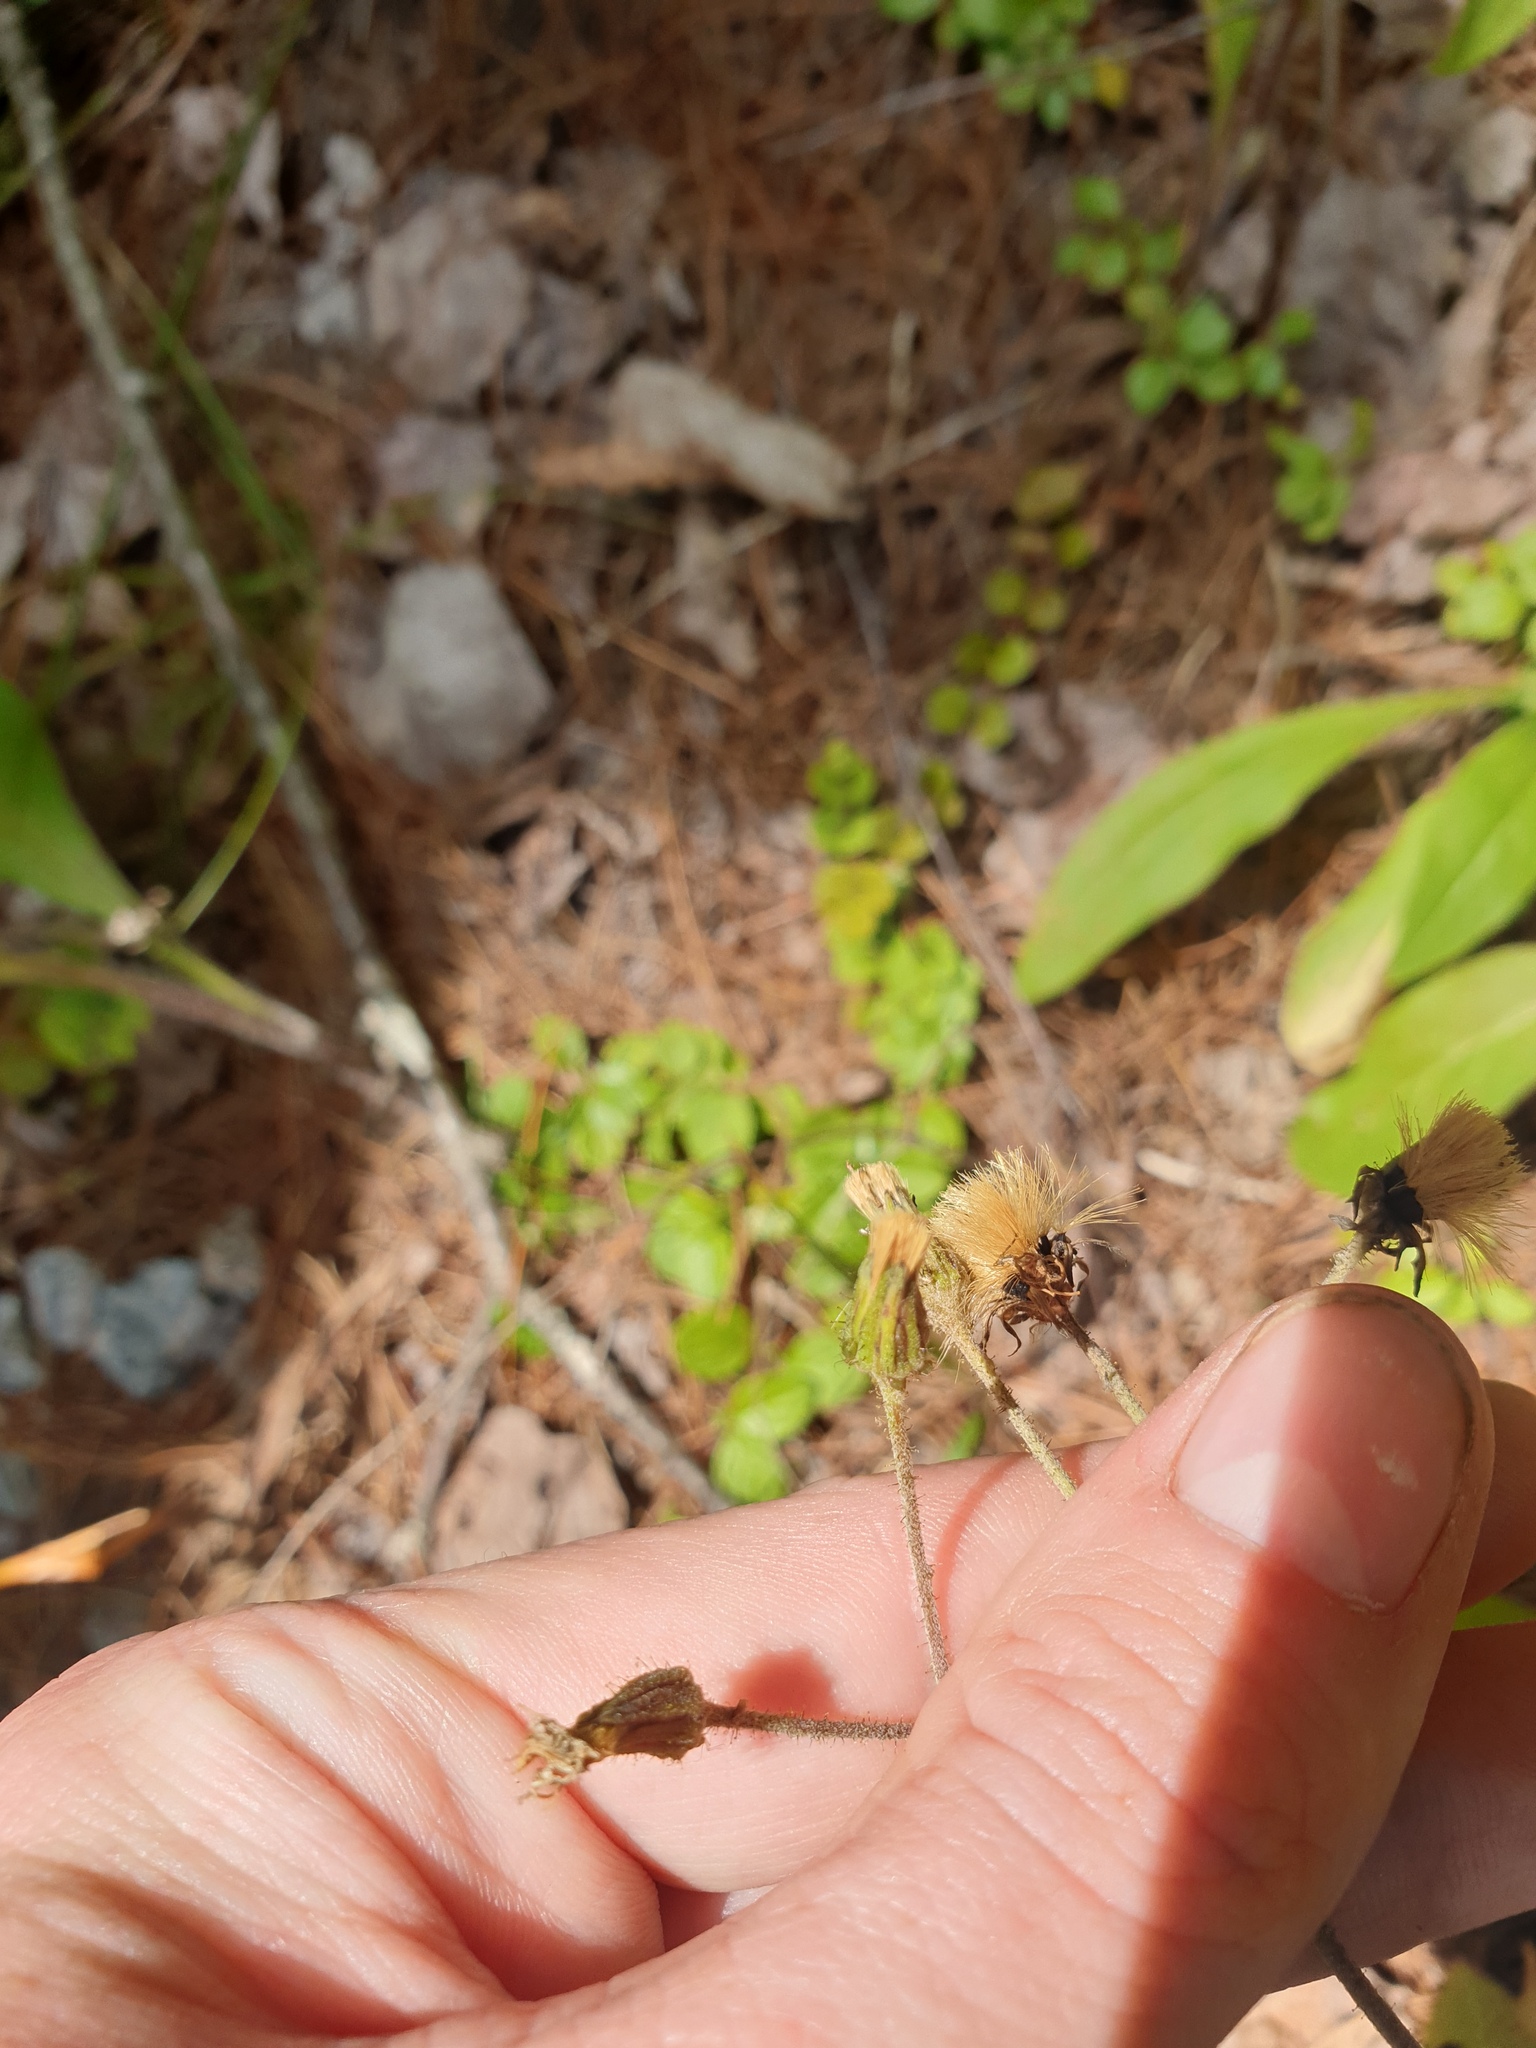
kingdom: Plantae
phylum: Tracheophyta
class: Magnoliopsida
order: Asterales
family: Asteraceae
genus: Hieracium
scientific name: Hieracium scabrum
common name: Rough hawkweed
